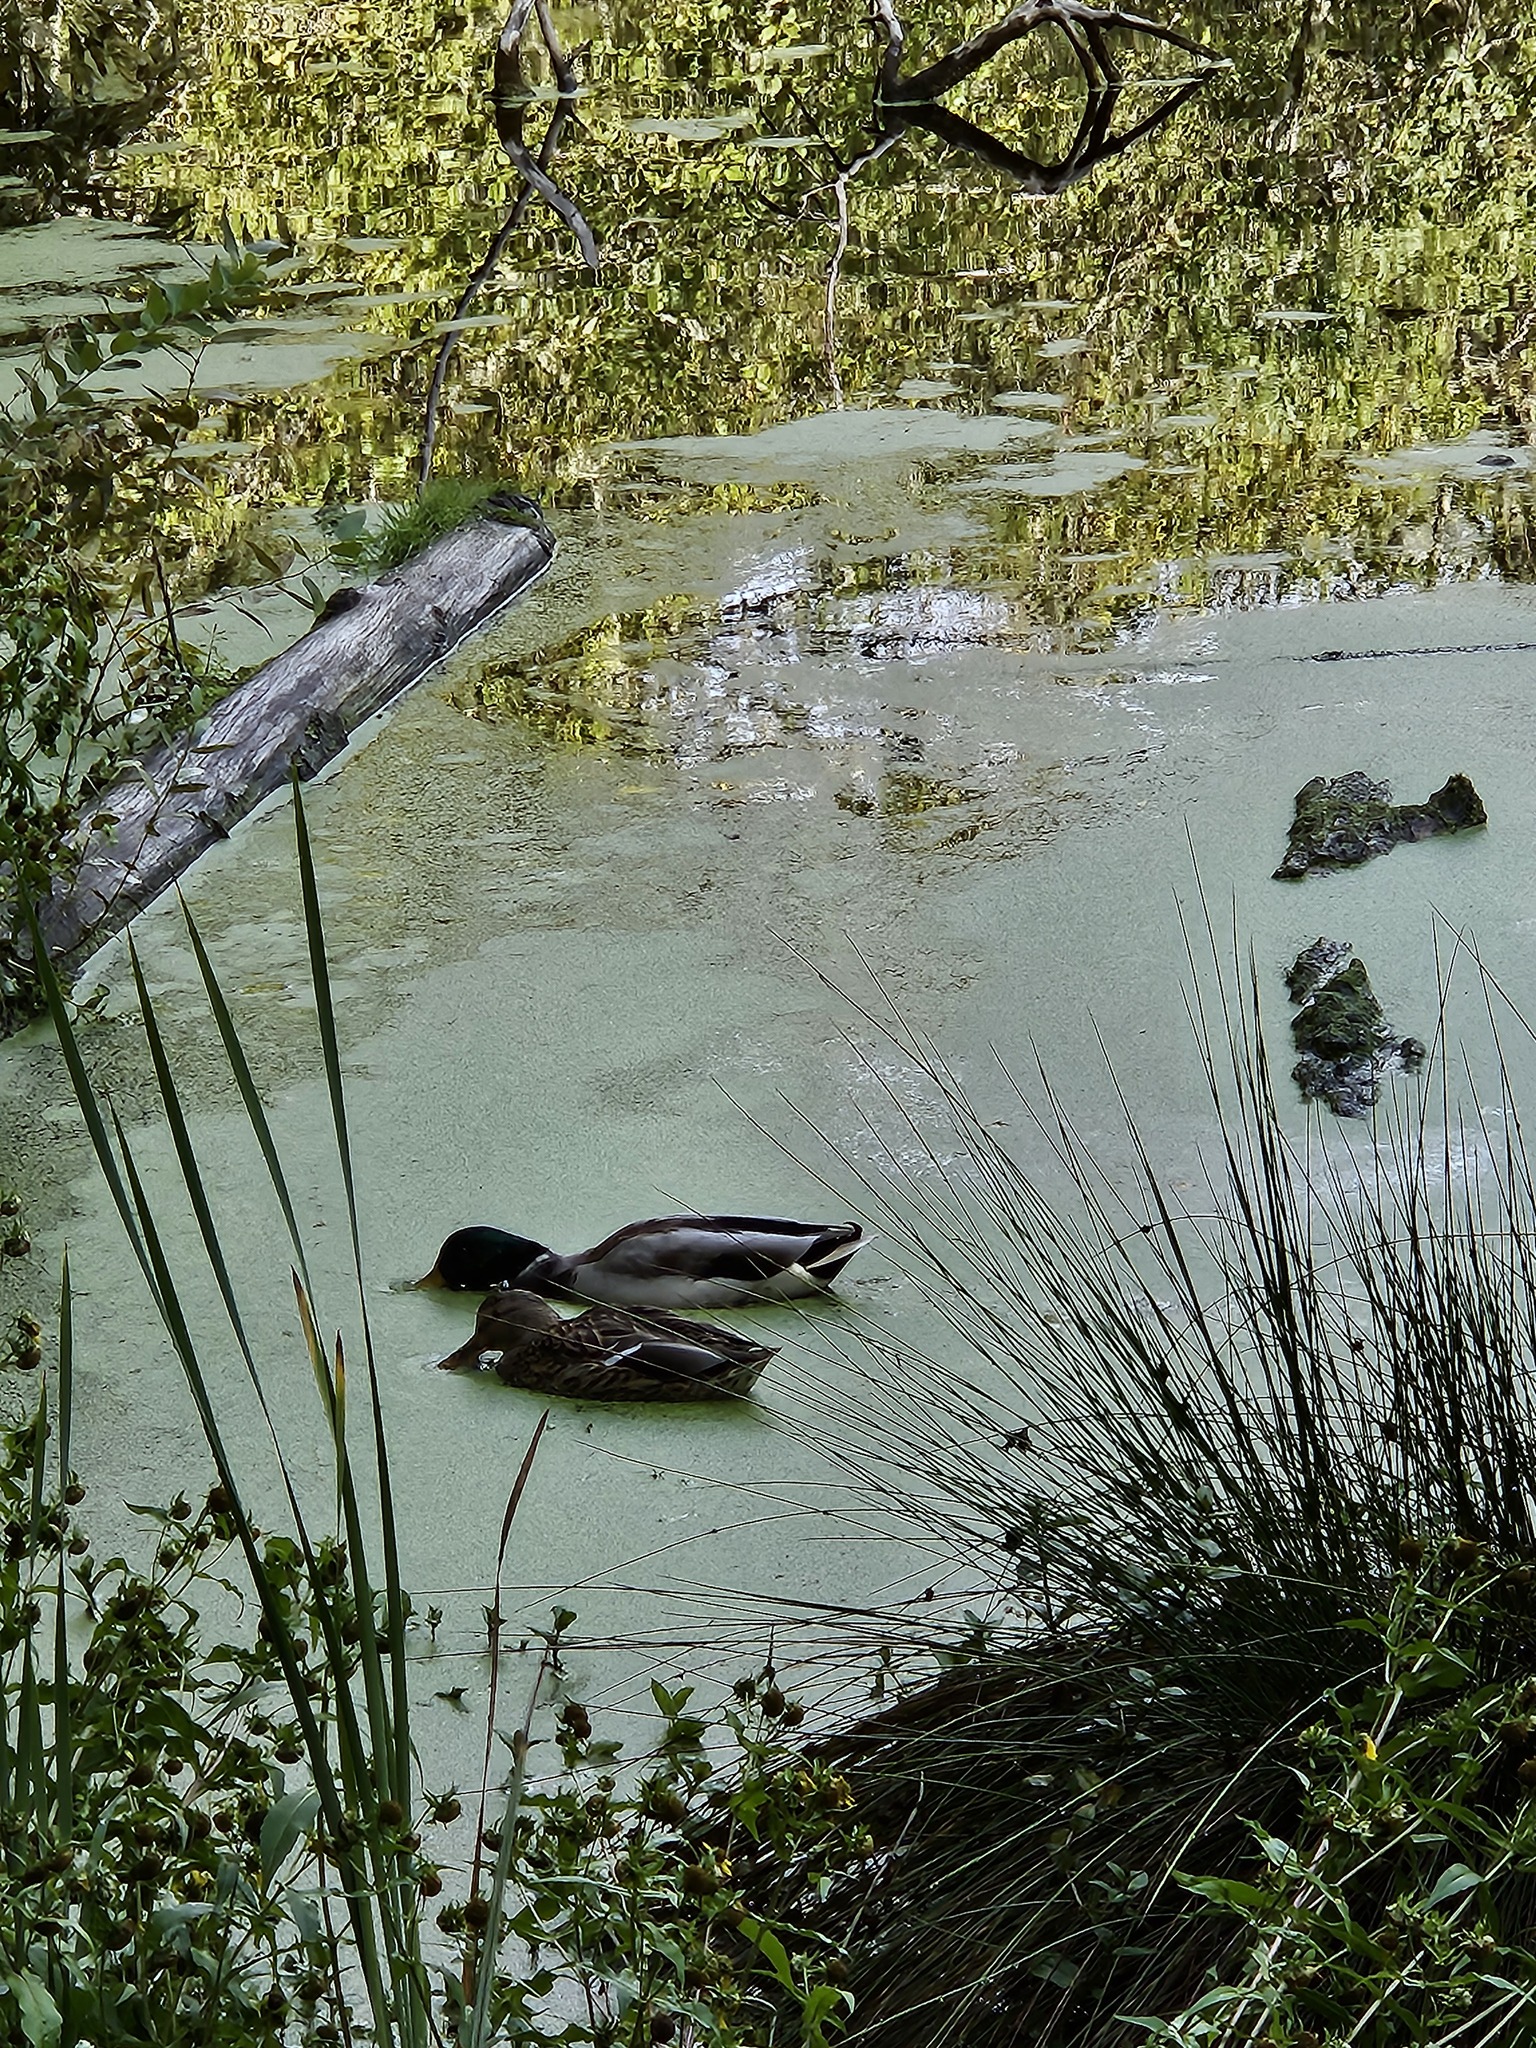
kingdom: Animalia
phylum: Chordata
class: Aves
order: Anseriformes
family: Anatidae
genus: Anas
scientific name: Anas platyrhynchos
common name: Mallard
